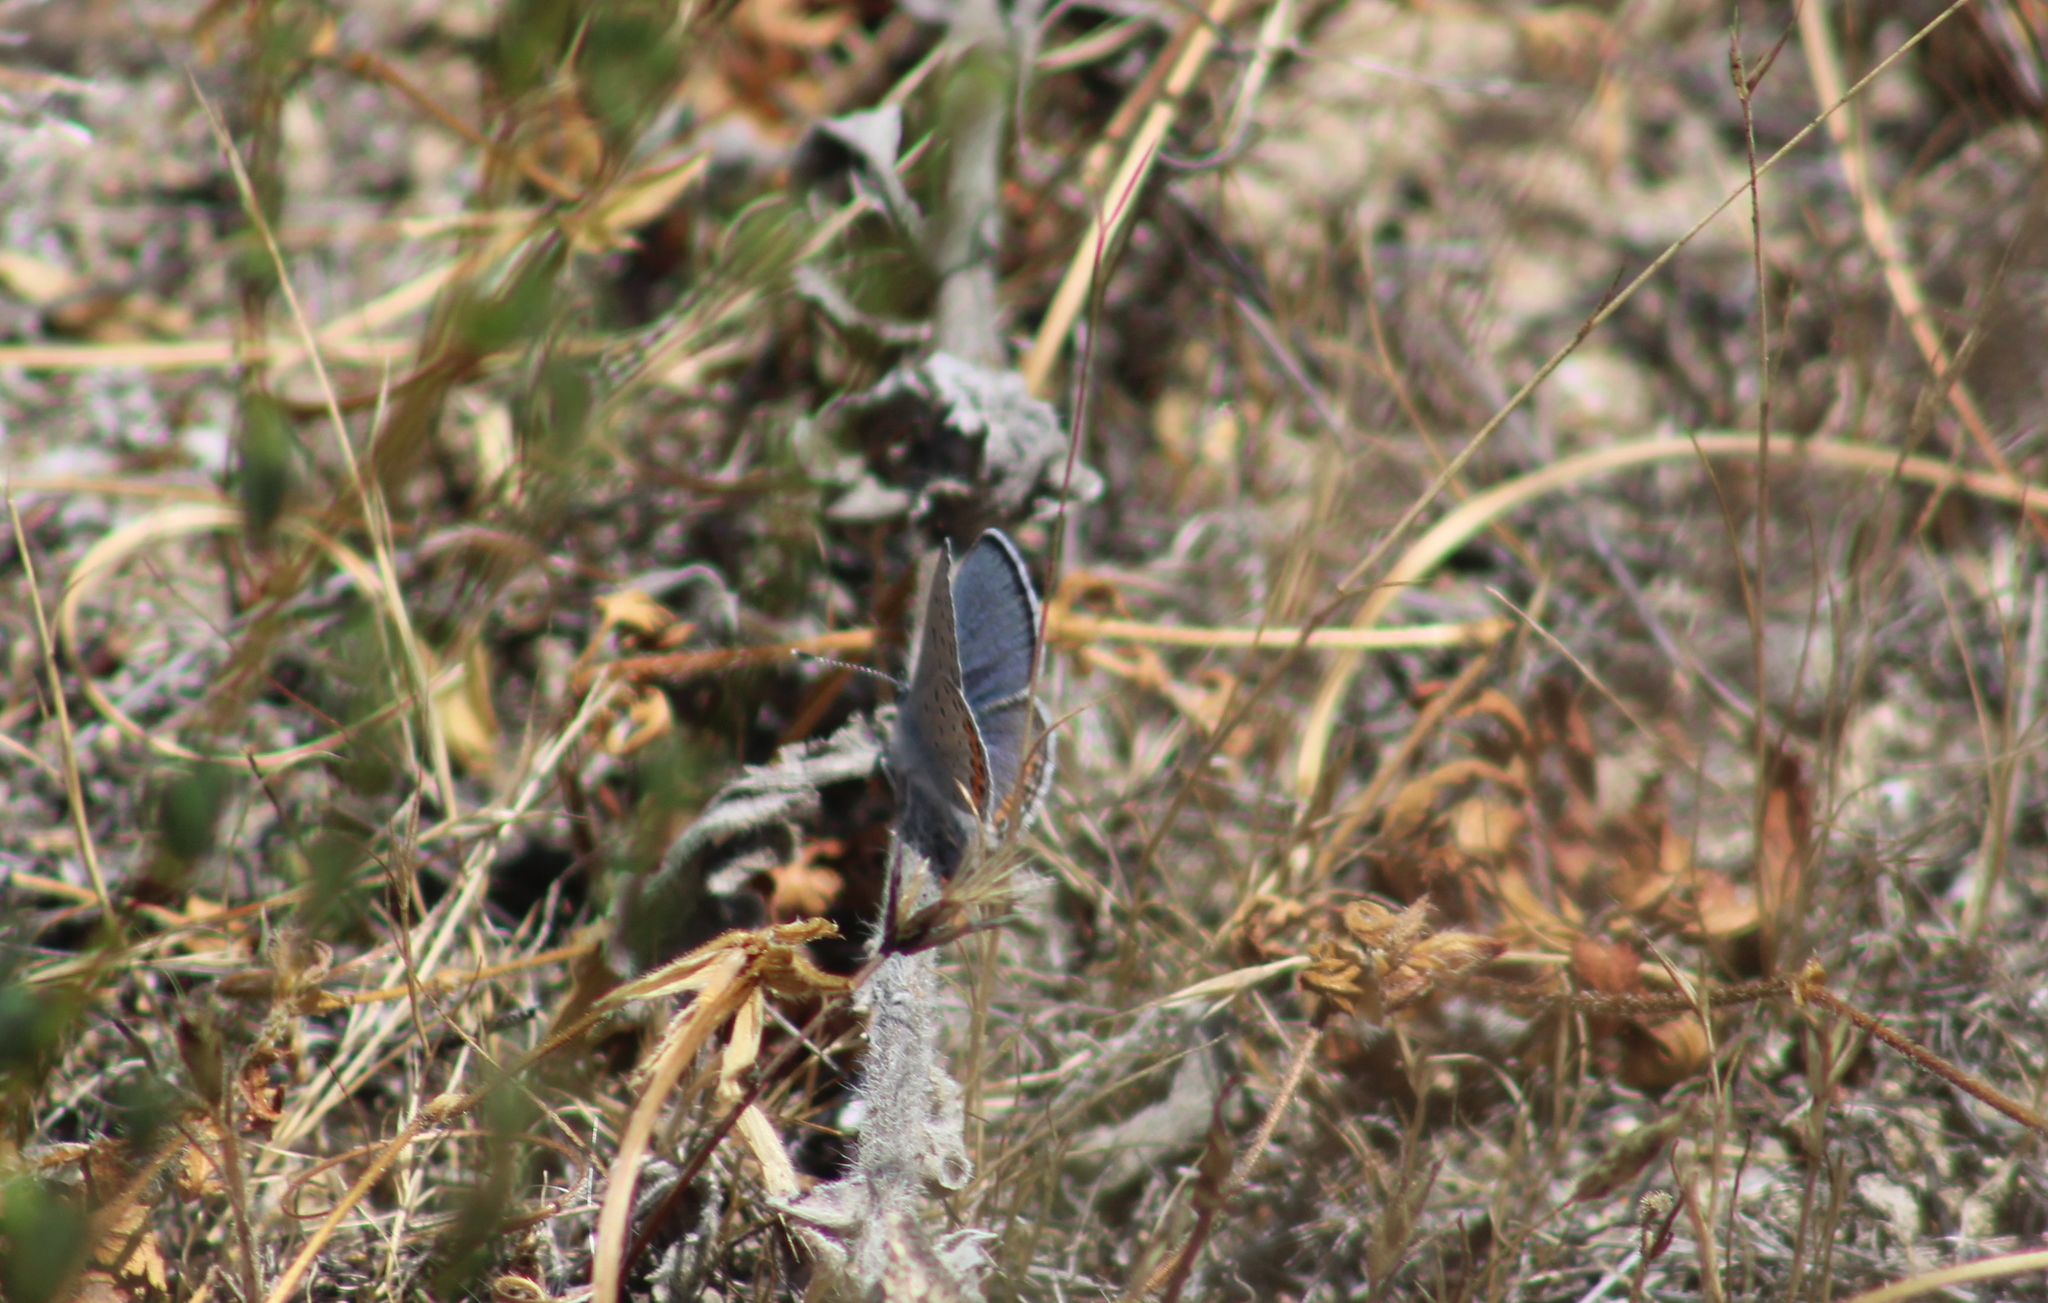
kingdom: Animalia
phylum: Arthropoda
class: Insecta
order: Lepidoptera
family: Lycaenidae
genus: Icaricia
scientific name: Icaricia acmon
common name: Acmon blue
